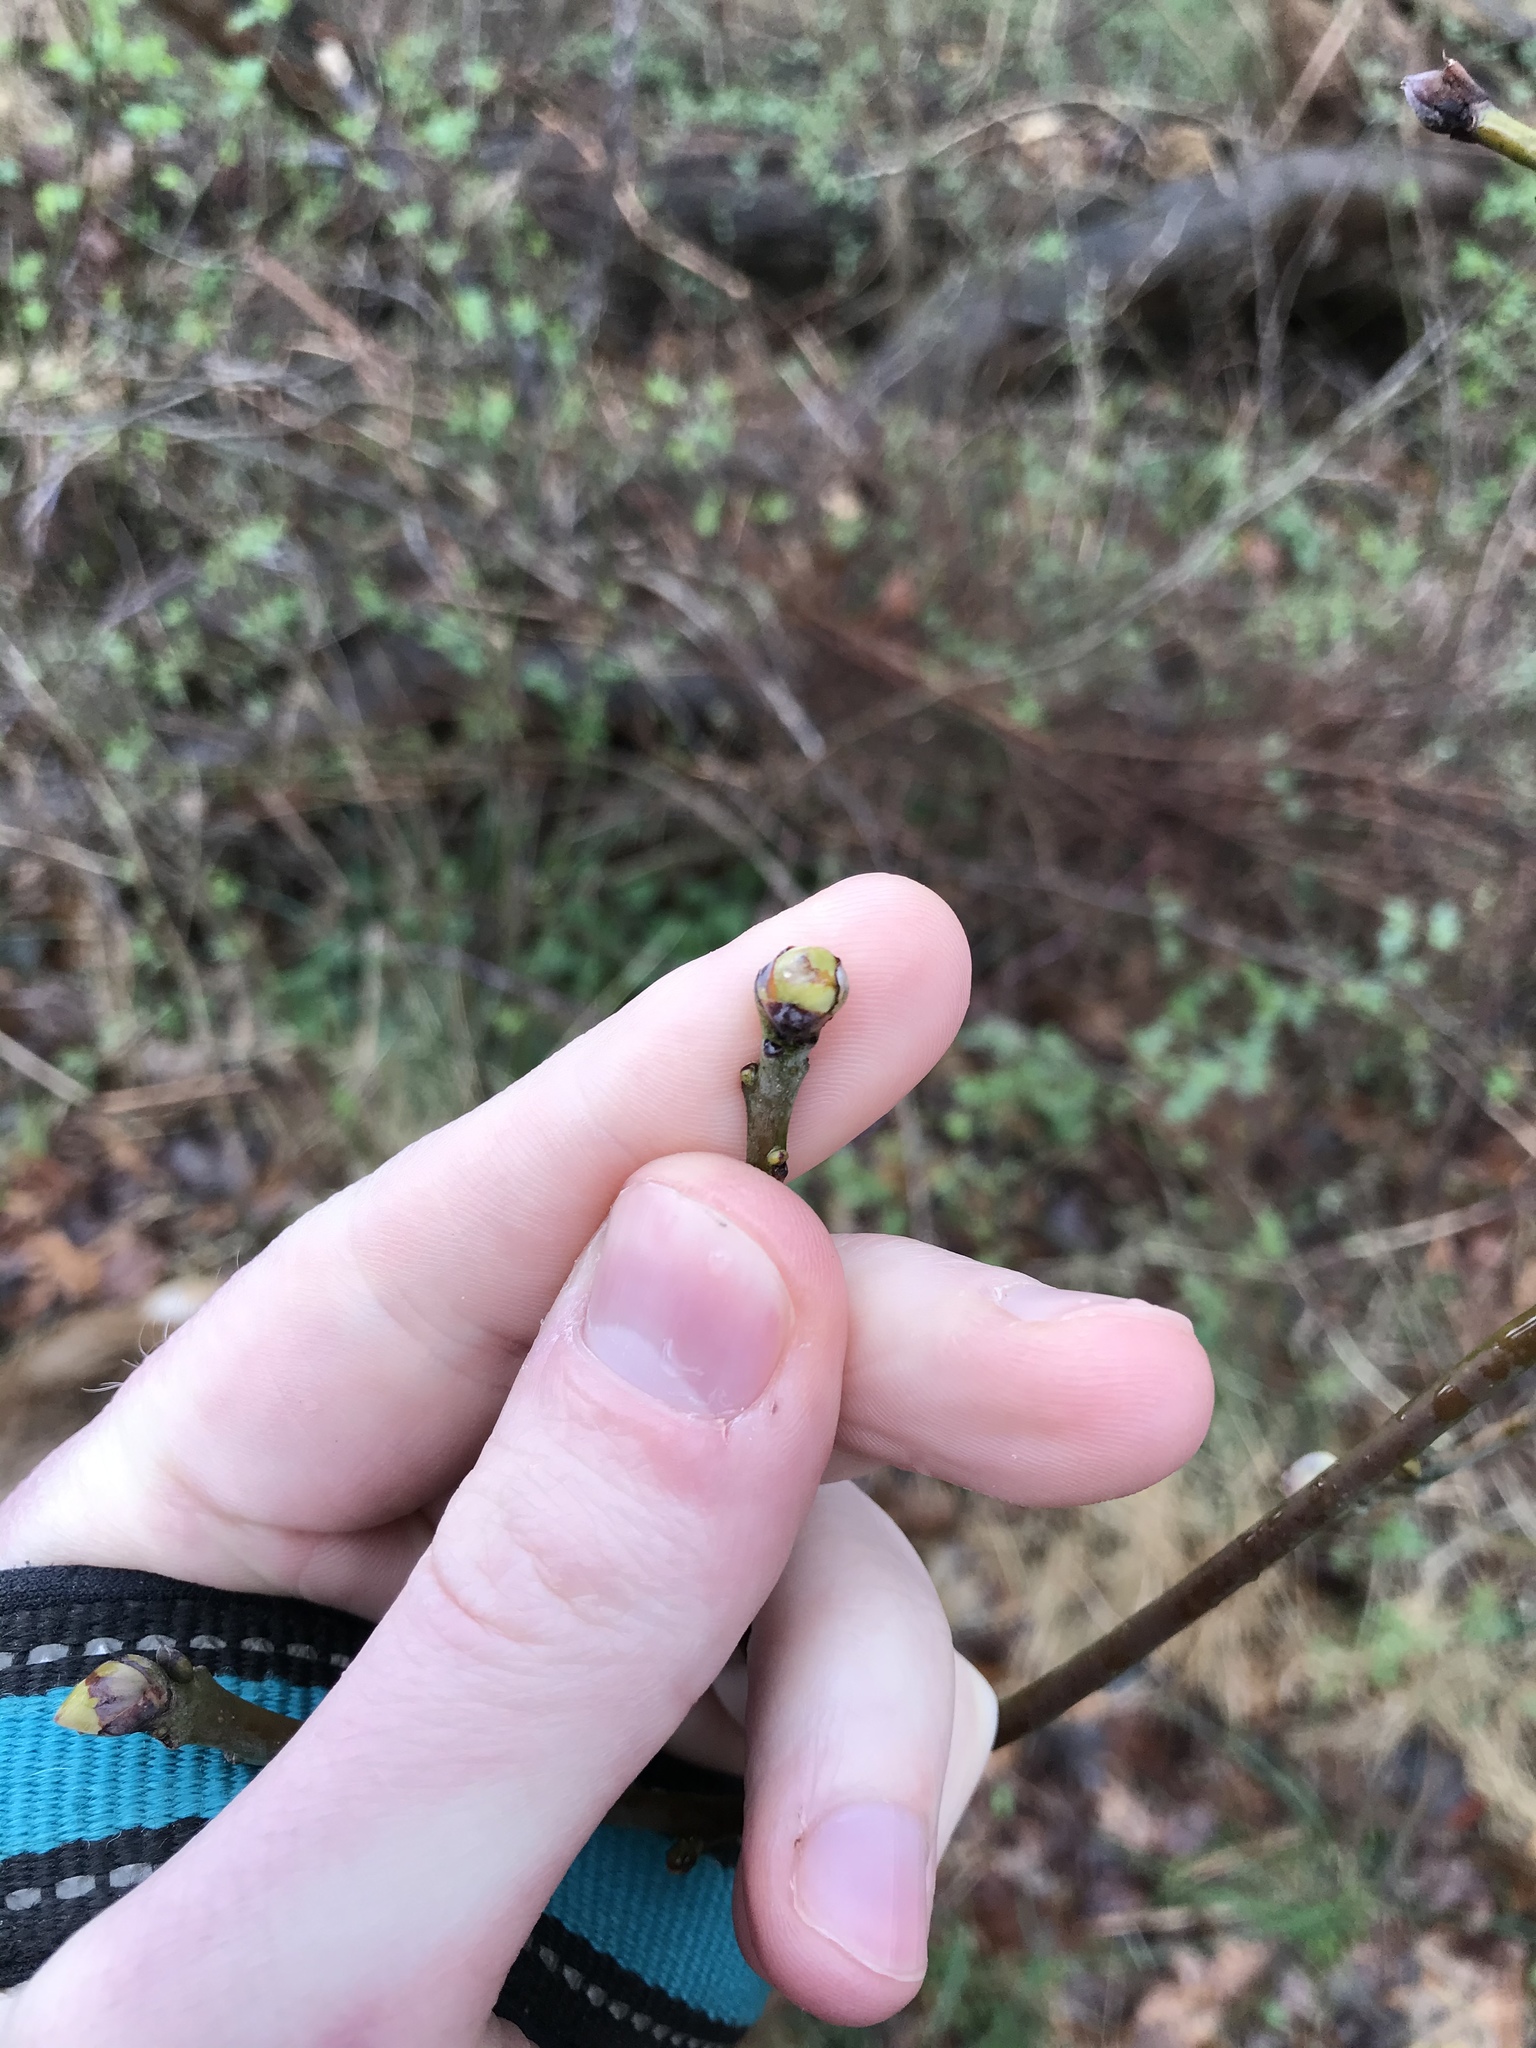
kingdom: Plantae
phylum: Tracheophyta
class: Magnoliopsida
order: Laurales
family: Lauraceae
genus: Sassafras
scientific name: Sassafras albidum
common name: Sassafras
